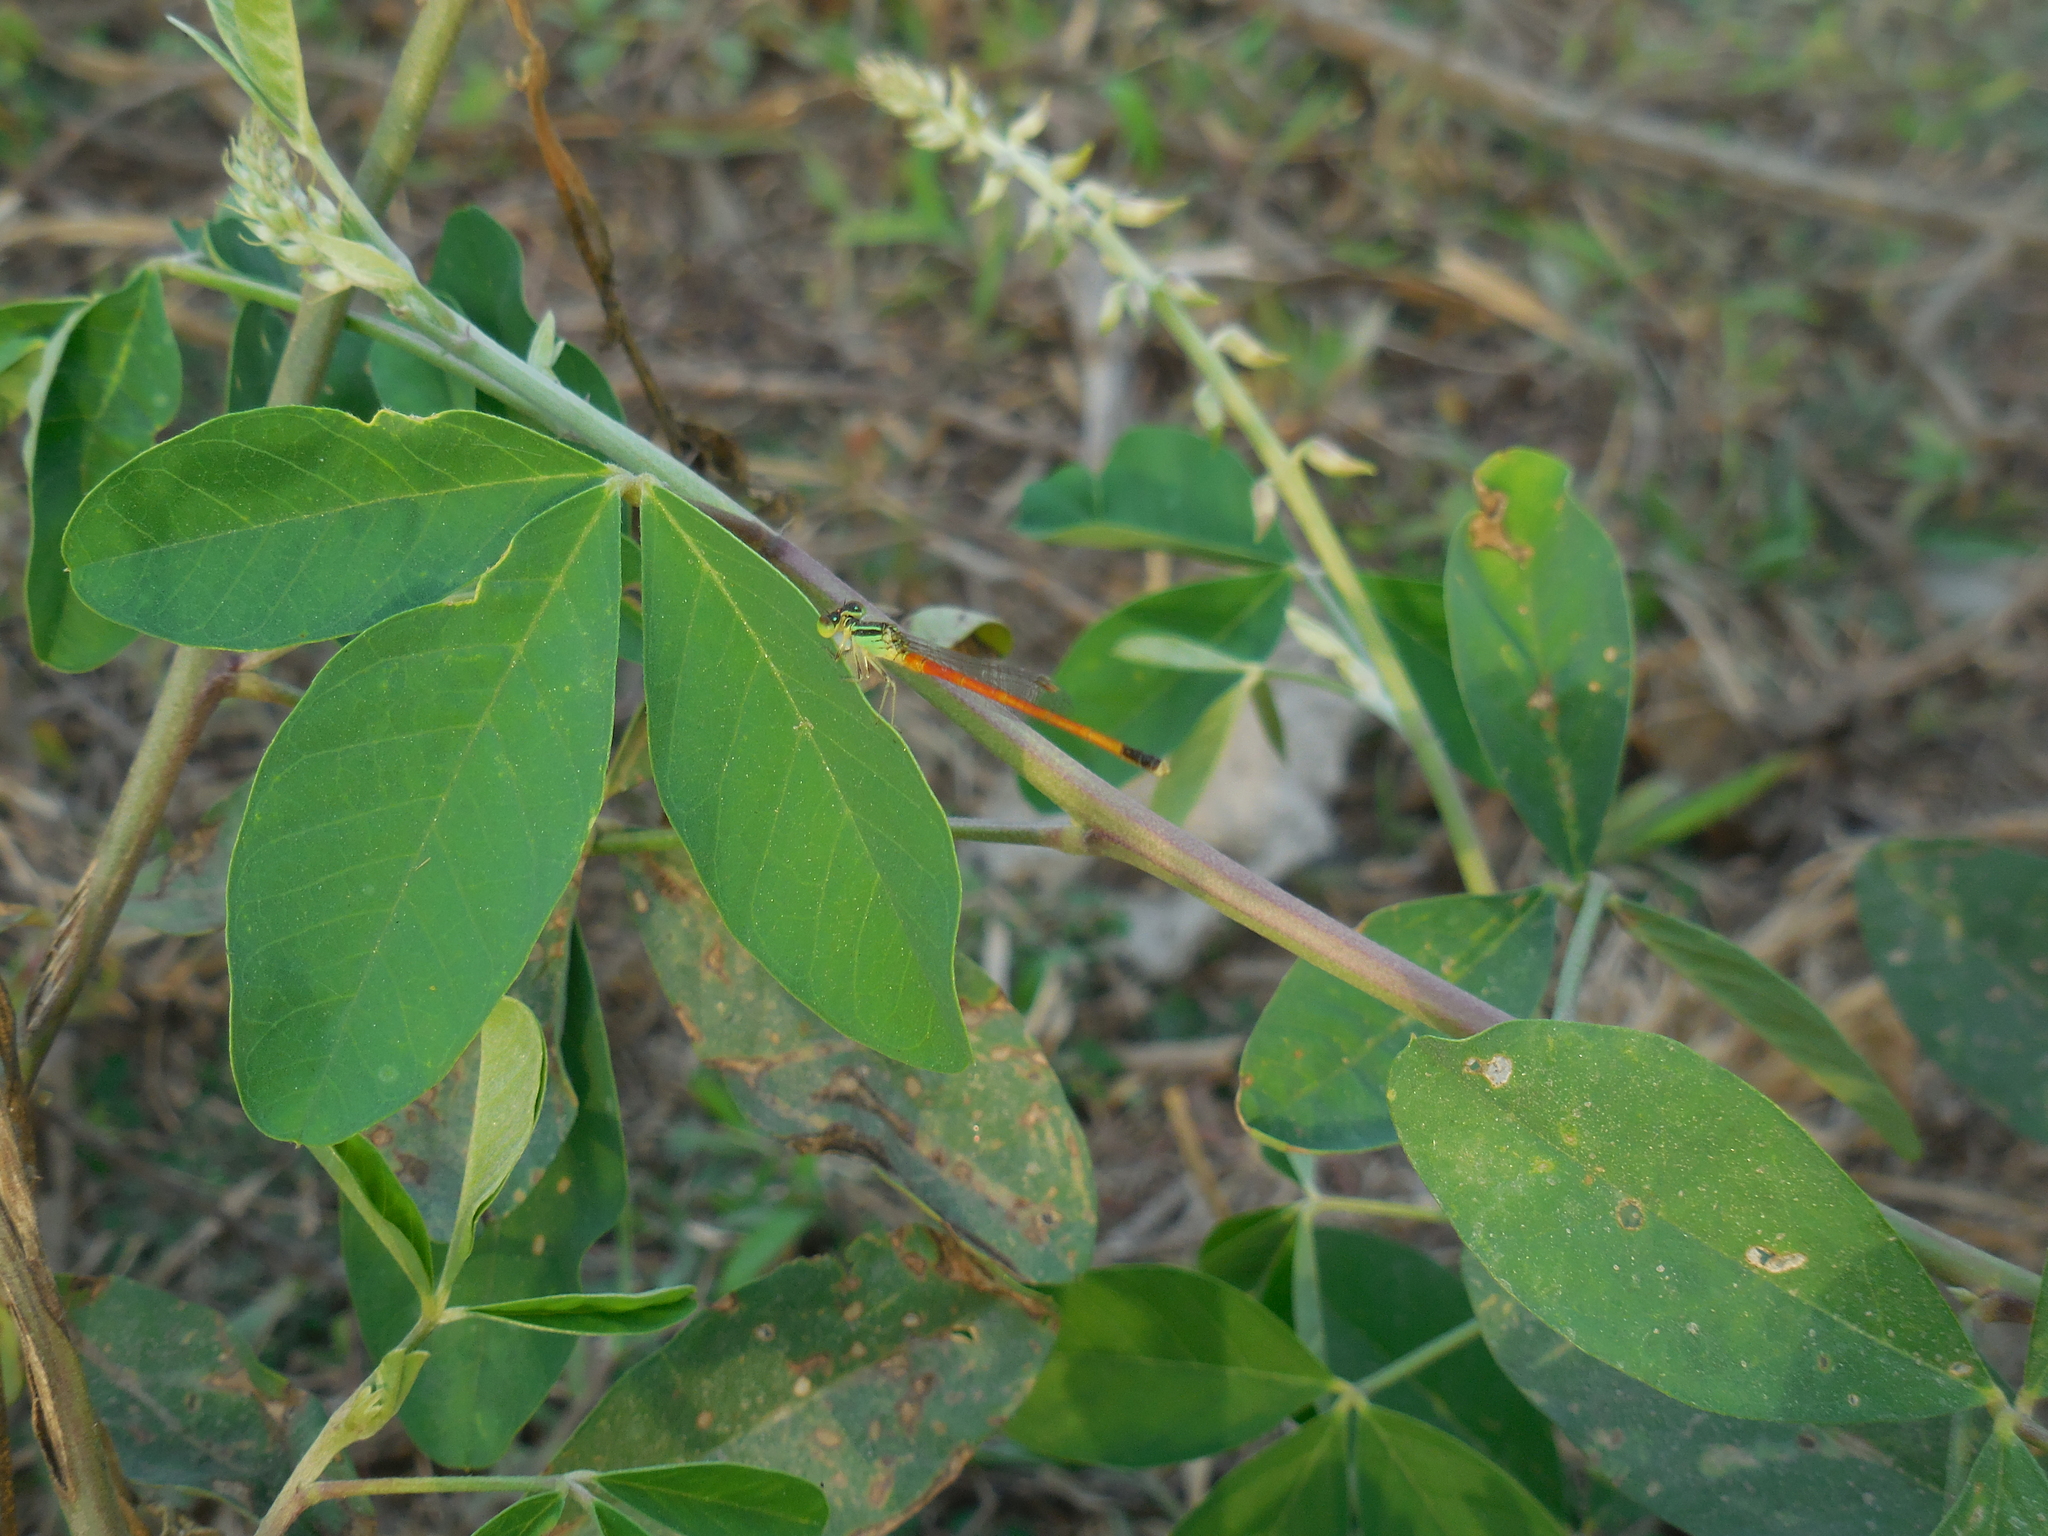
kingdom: Animalia
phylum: Arthropoda
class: Insecta
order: Odonata
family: Coenagrionidae
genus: Ischnura
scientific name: Ischnura rufostigma
